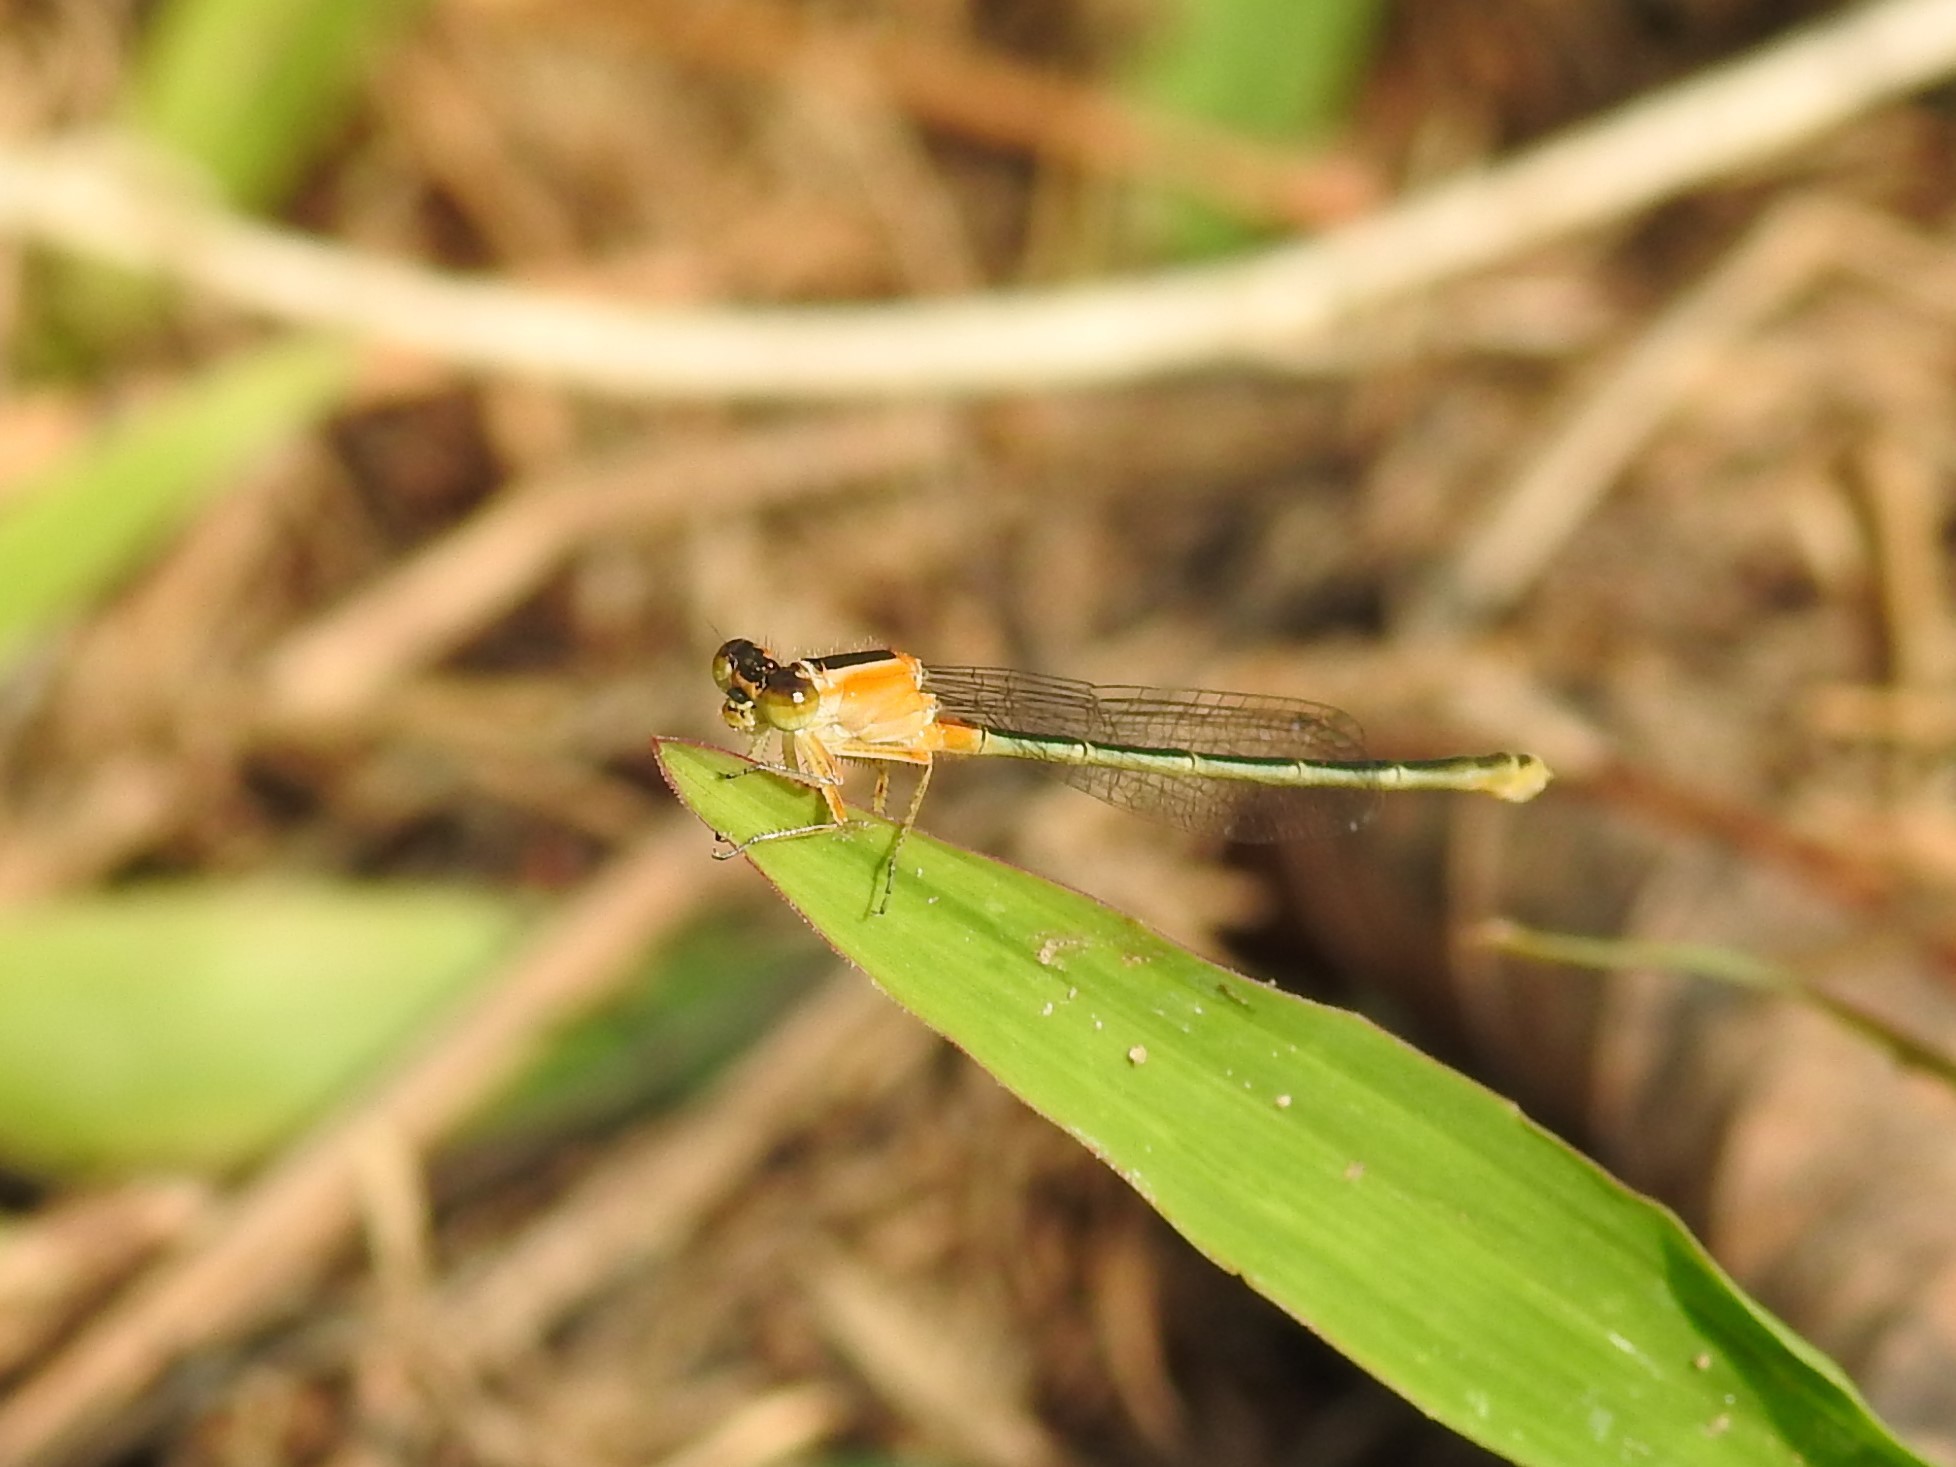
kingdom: Animalia
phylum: Arthropoda
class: Insecta
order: Odonata
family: Coenagrionidae
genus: Ischnura
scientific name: Ischnura senegalensis
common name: Tropical bluetail
